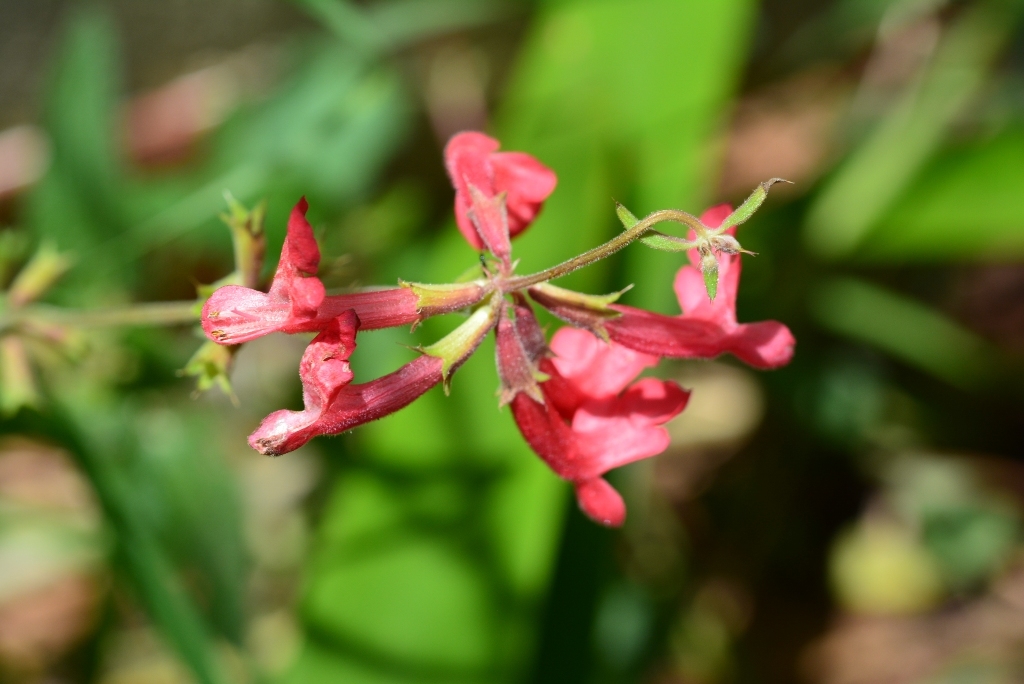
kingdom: Plantae
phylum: Tracheophyta
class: Magnoliopsida
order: Lamiales
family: Lamiaceae
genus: Stachys
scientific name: Stachys coccinea
